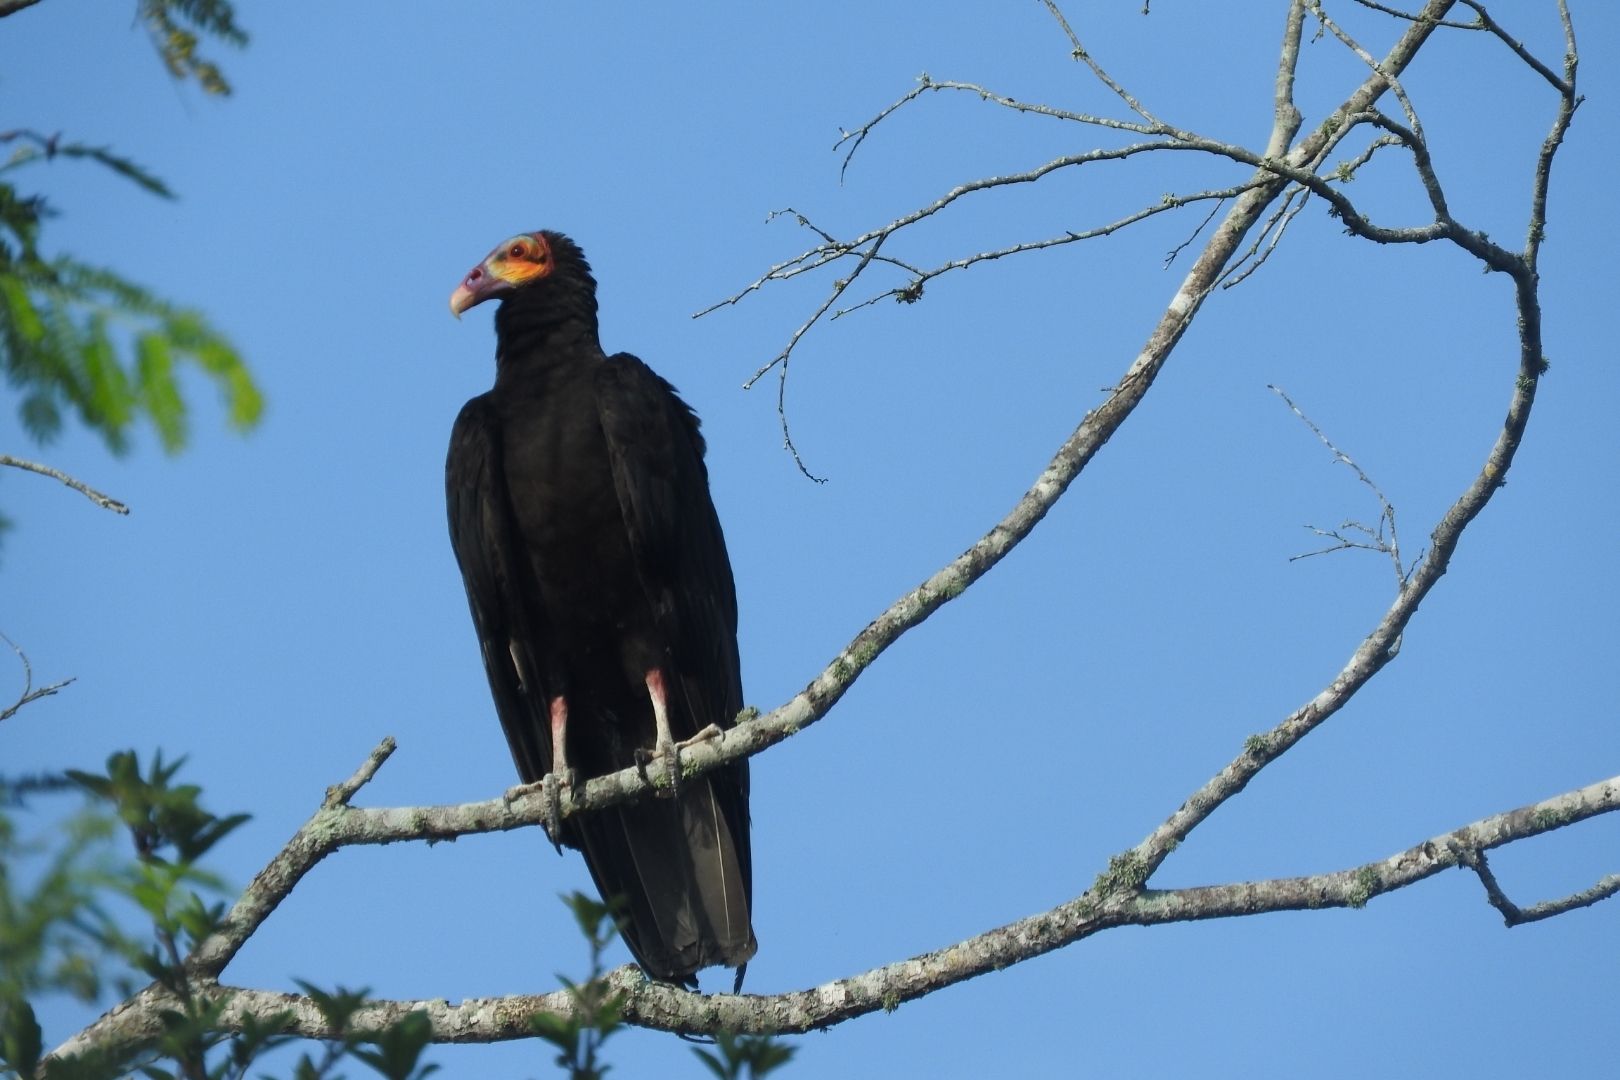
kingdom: Animalia
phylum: Chordata
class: Aves
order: Accipitriformes
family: Cathartidae
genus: Cathartes
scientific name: Cathartes burrovianus
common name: Lesser yellow-headed vulture
